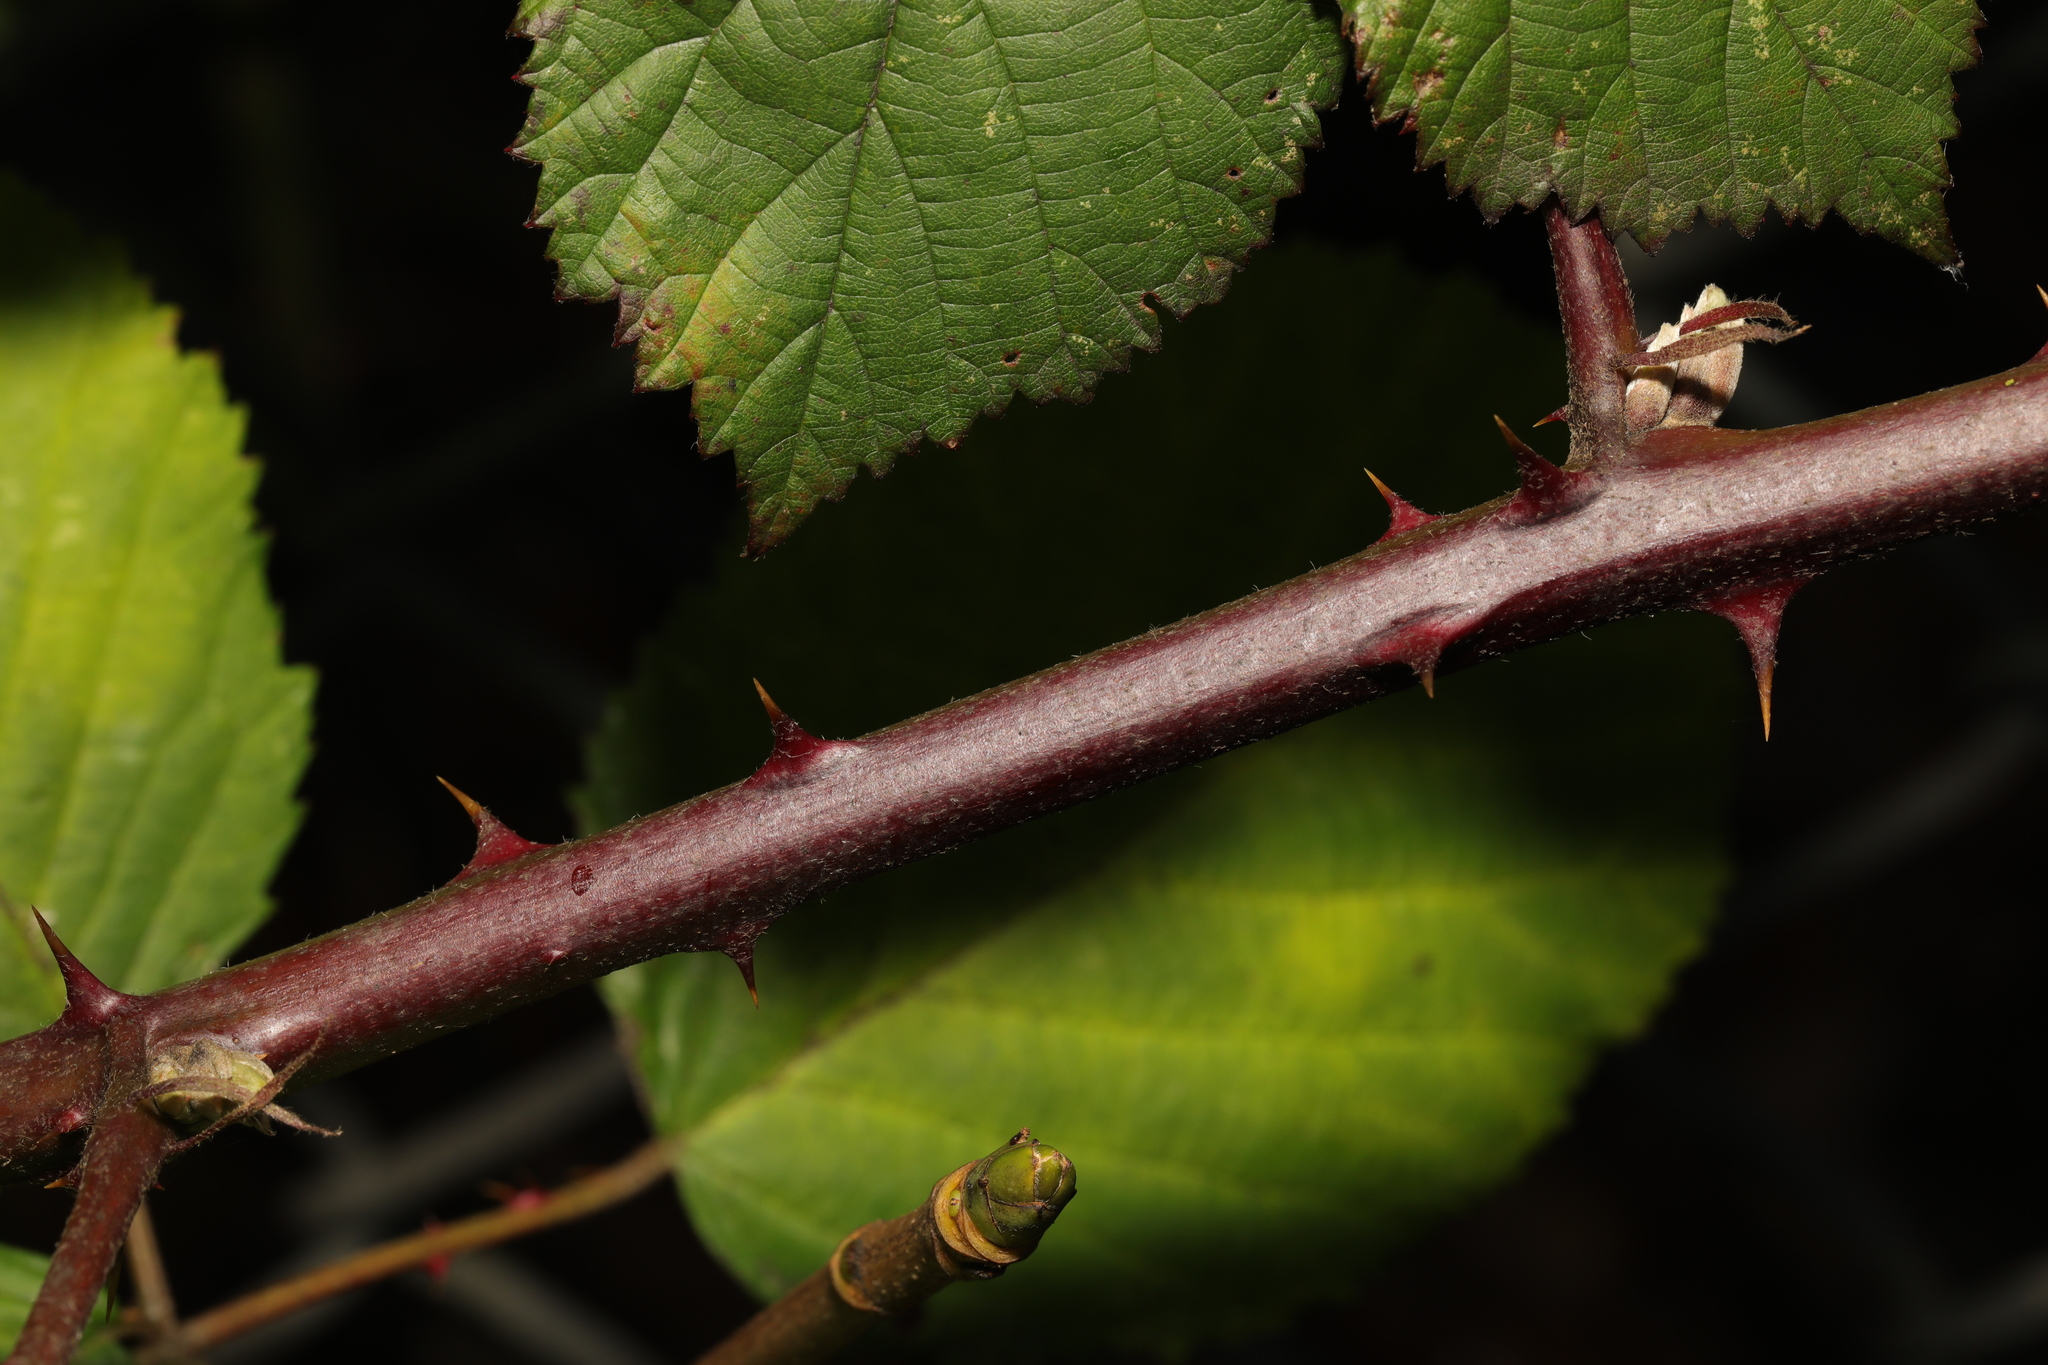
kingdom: Plantae
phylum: Tracheophyta
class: Magnoliopsida
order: Rosales
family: Rosaceae
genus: Rubus
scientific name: Rubus armeniacus
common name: Himalayan blackberry
